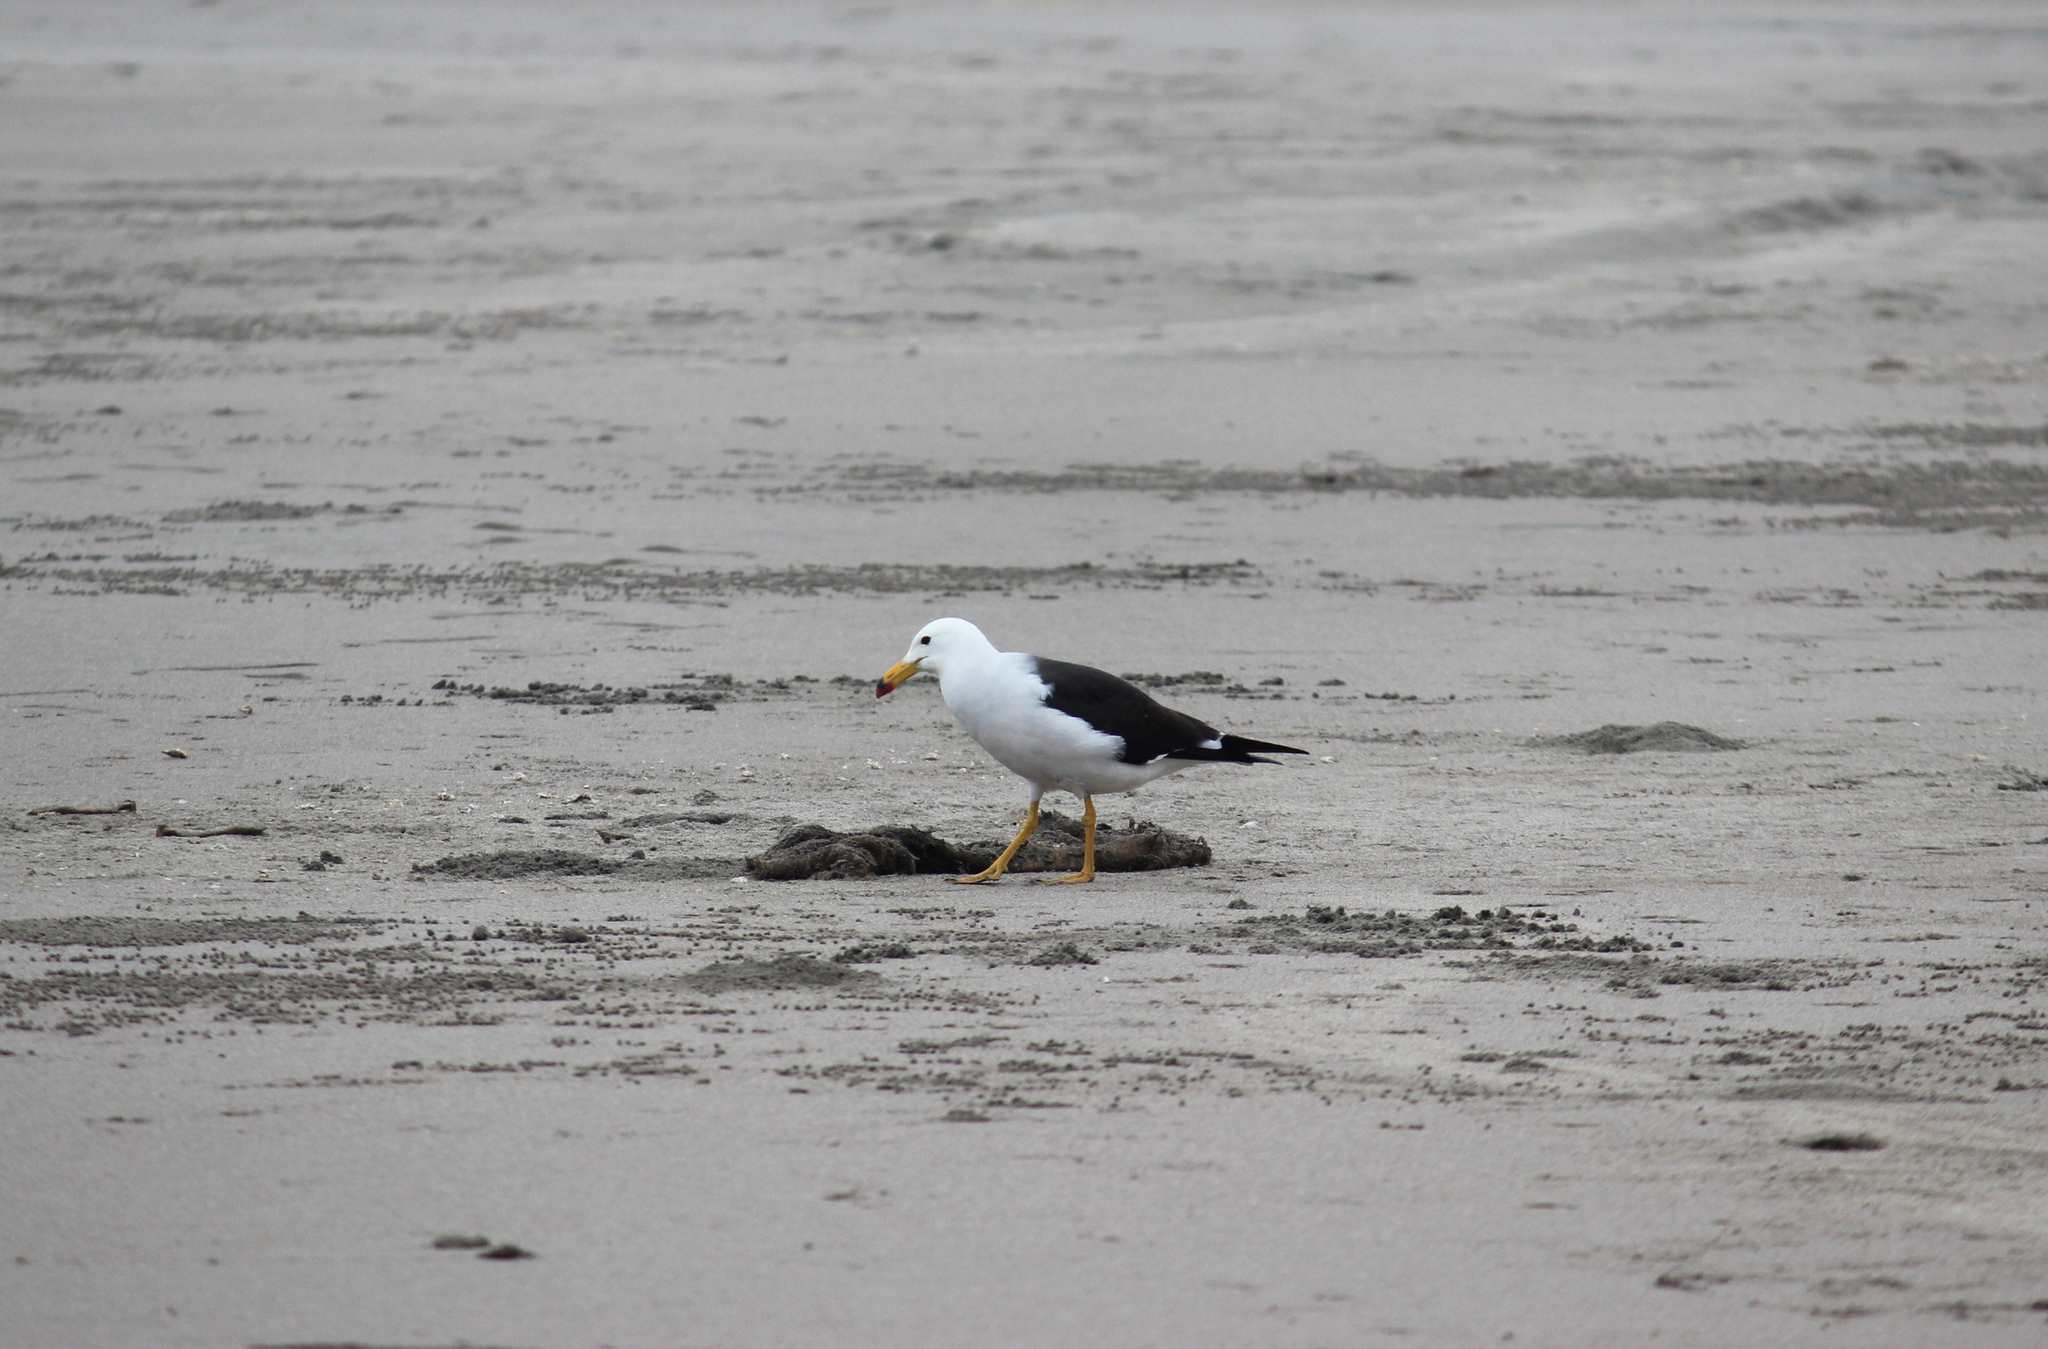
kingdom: Animalia
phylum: Chordata
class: Aves
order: Charadriiformes
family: Laridae
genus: Larus
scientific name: Larus belcheri
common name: Belcher's gull
